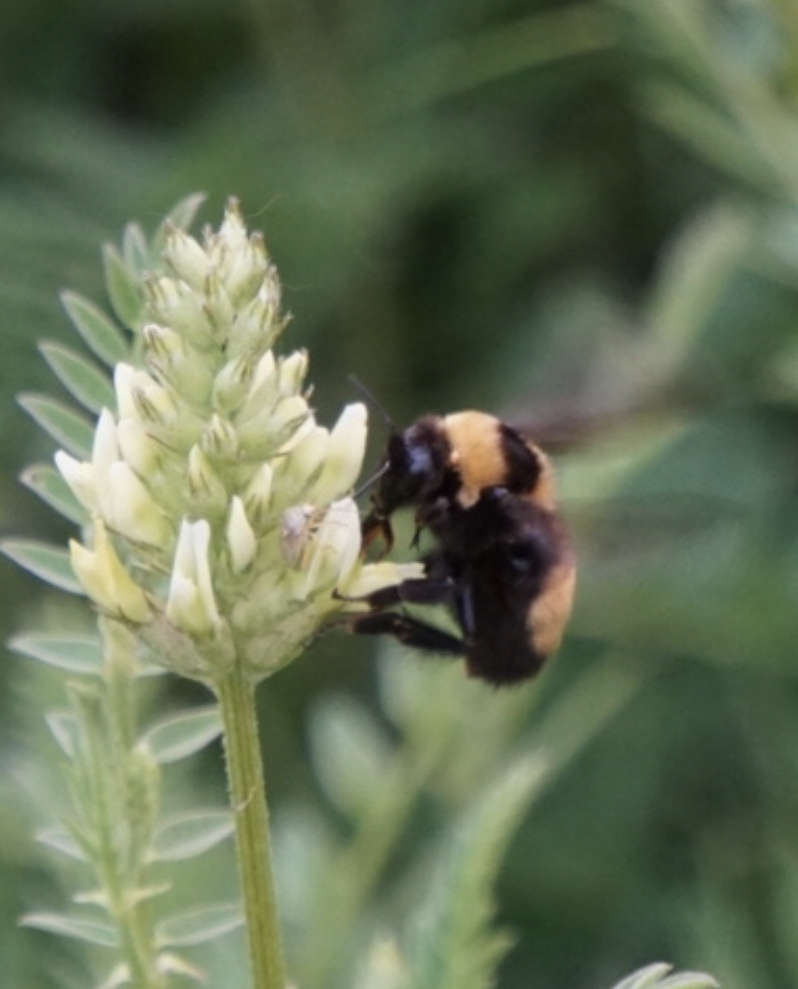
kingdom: Animalia
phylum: Arthropoda
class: Insecta
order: Hymenoptera
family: Apidae
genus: Bombus
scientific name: Bombus nevadensis
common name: Nevada bumble bee
